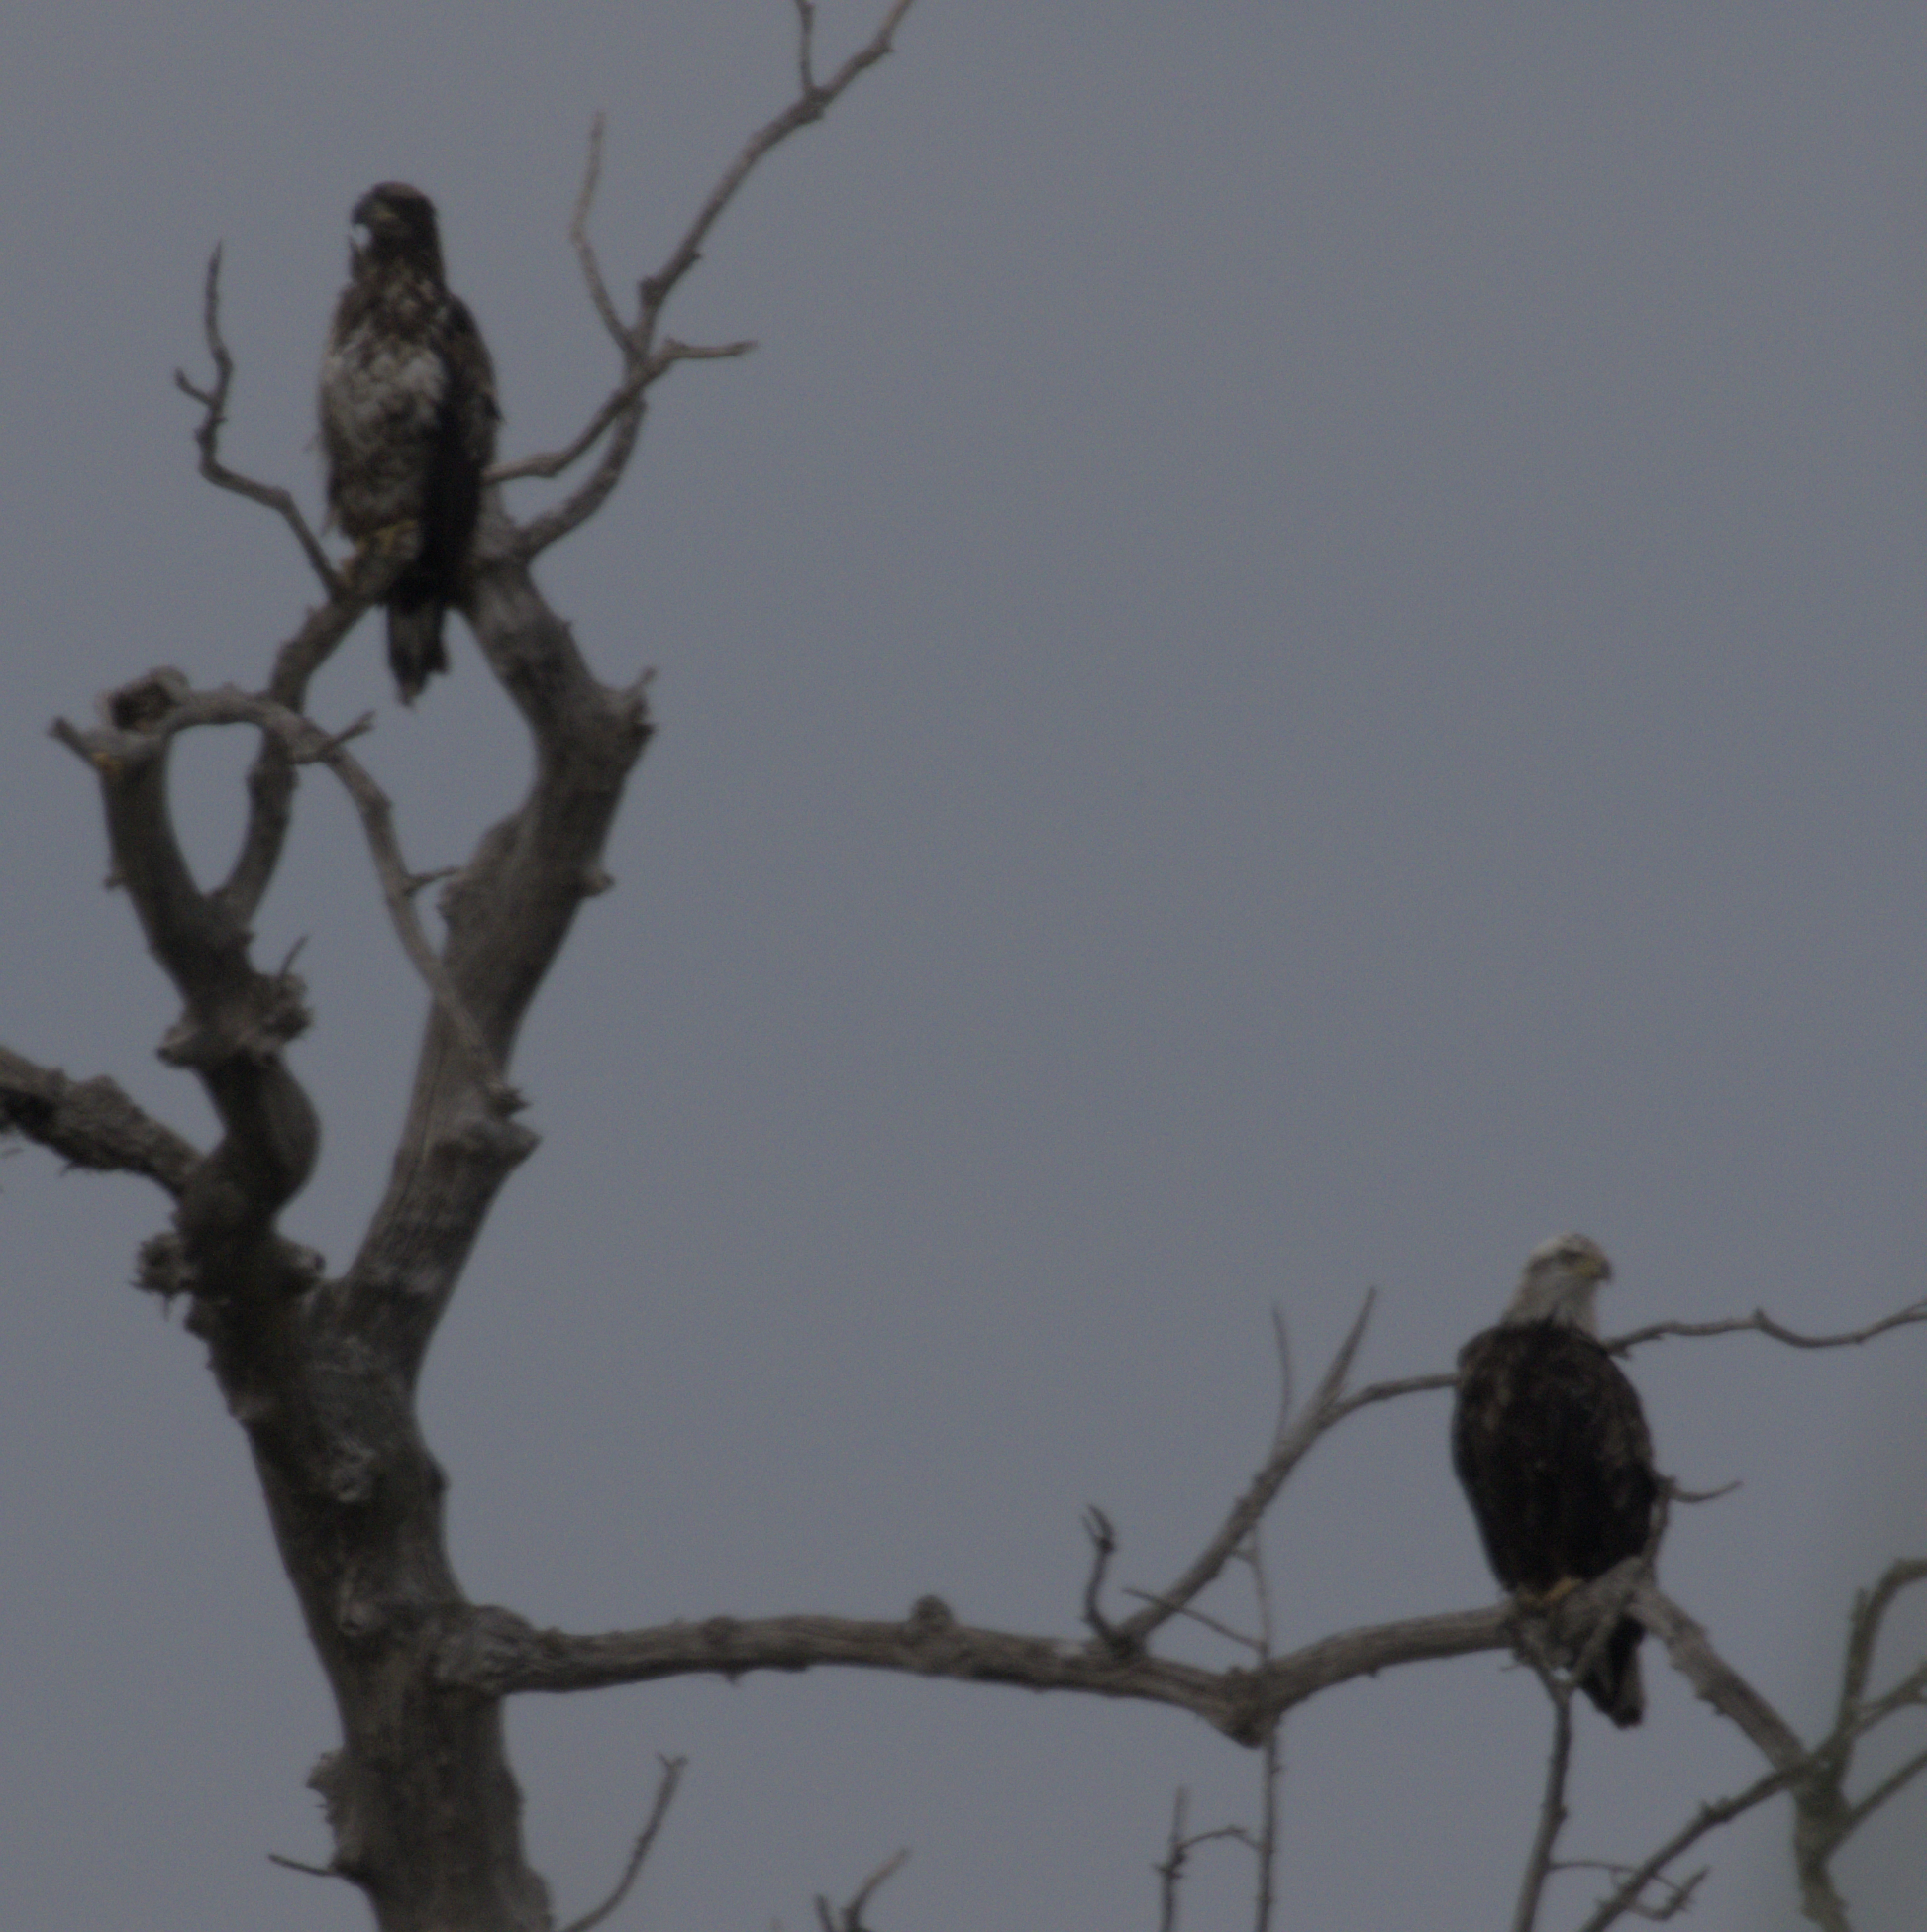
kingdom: Animalia
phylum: Chordata
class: Aves
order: Accipitriformes
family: Accipitridae
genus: Haliaeetus
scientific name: Haliaeetus leucocephalus
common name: Bald eagle
